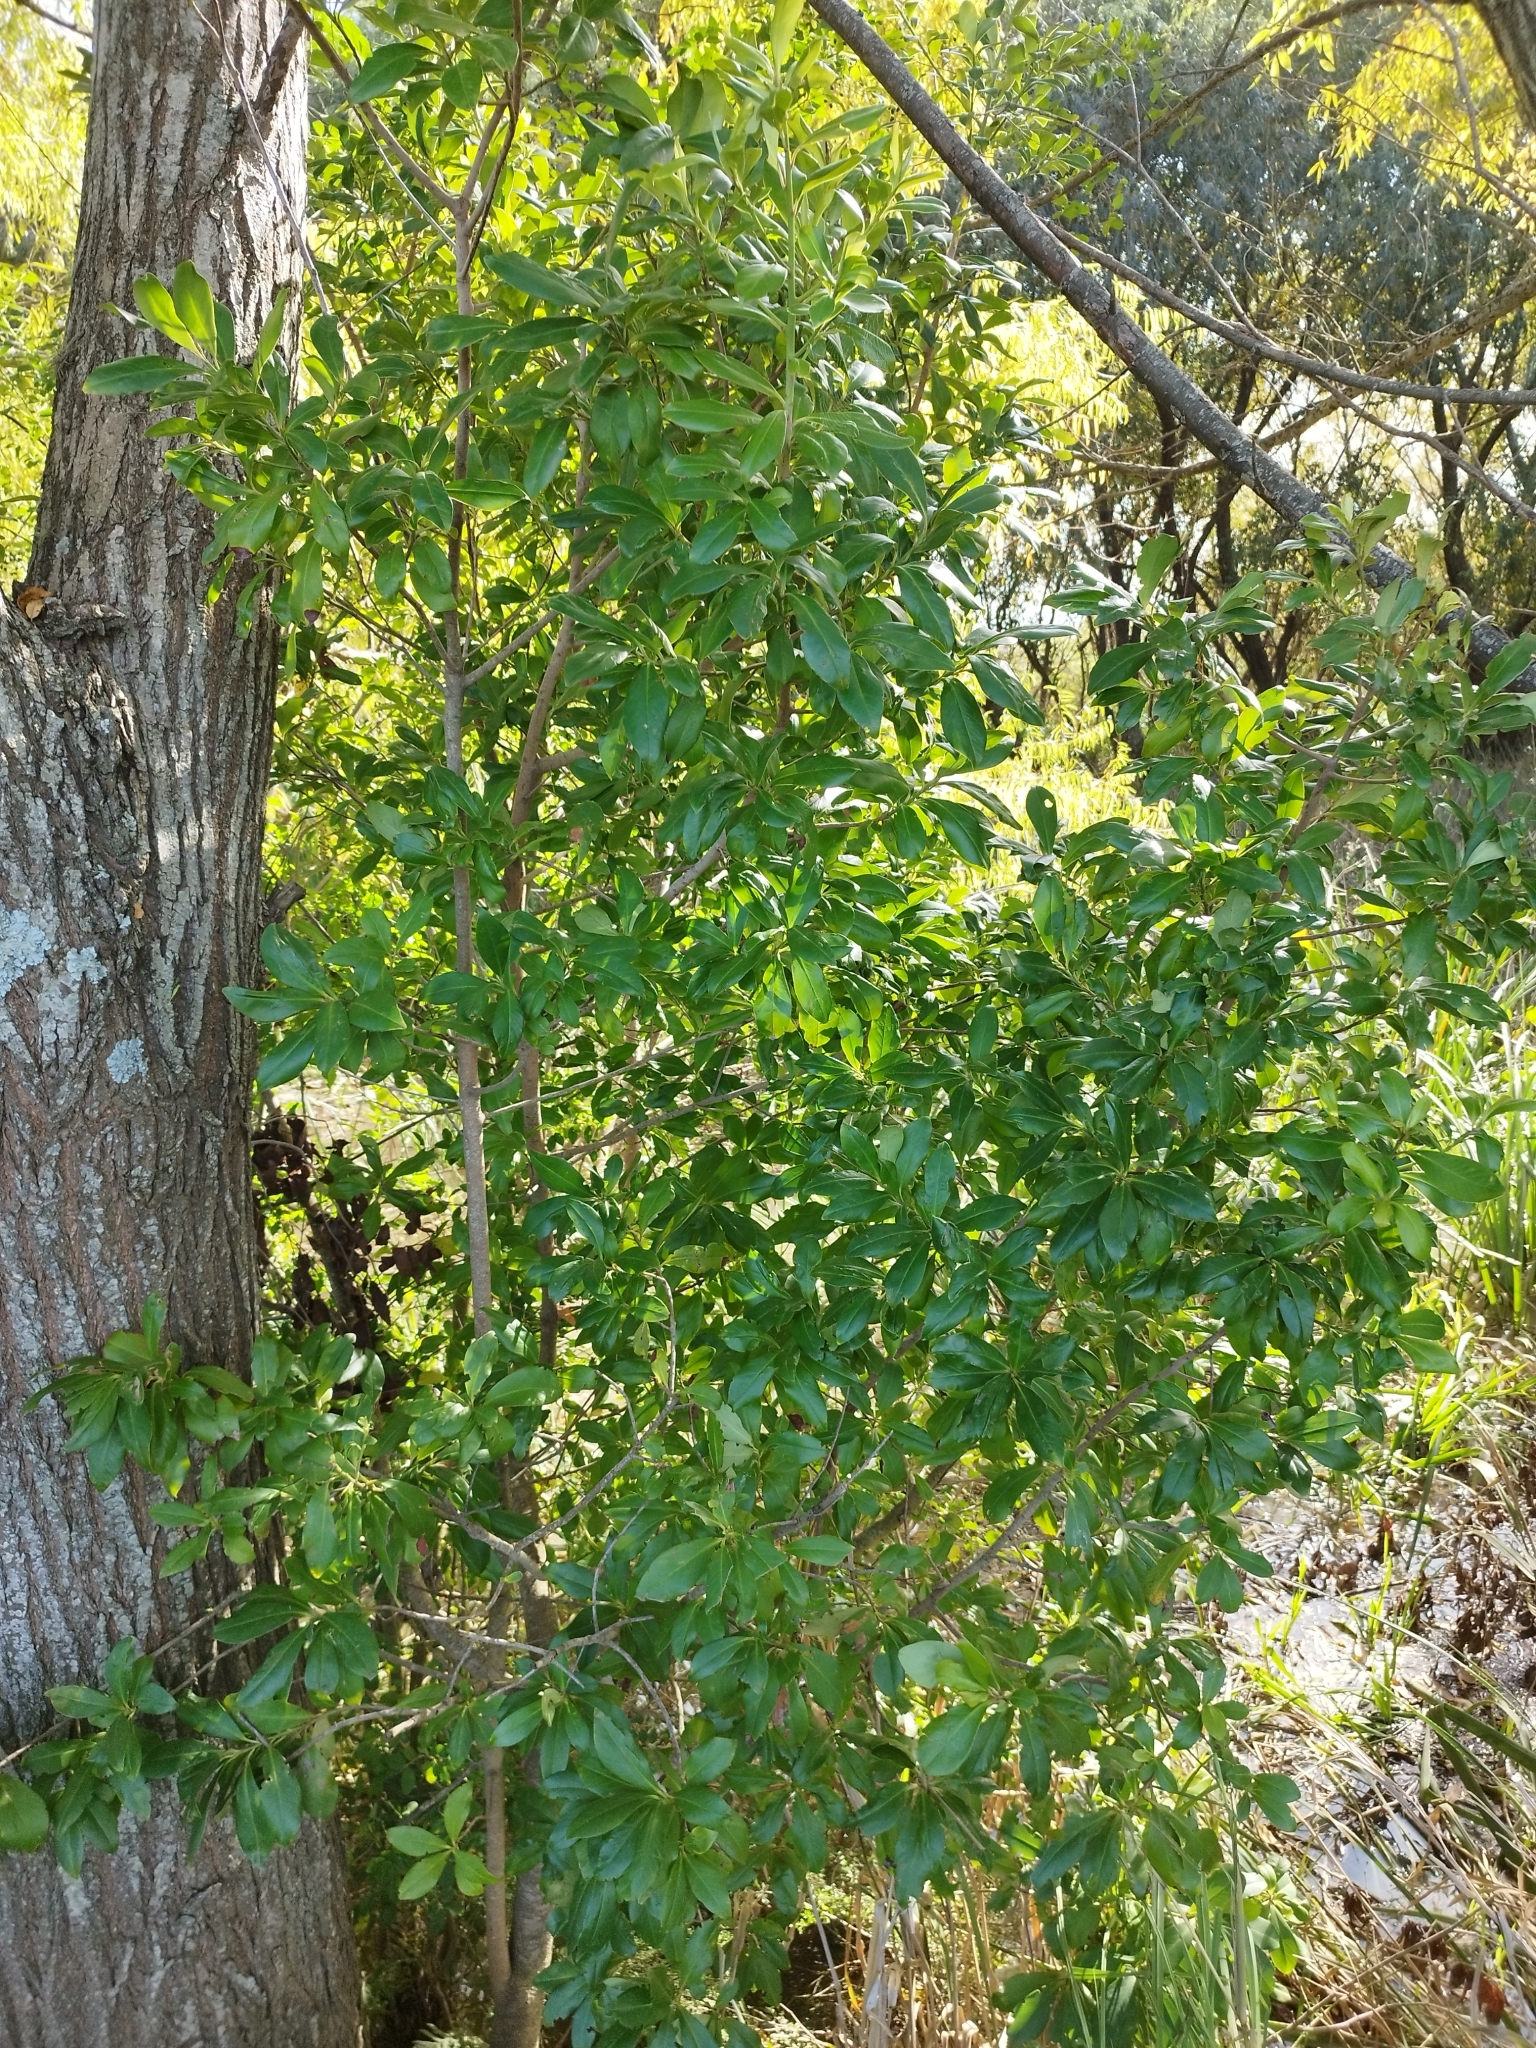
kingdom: Plantae
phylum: Tracheophyta
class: Magnoliopsida
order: Ericales
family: Primulaceae
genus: Myrsine
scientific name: Myrsine laetevirens
